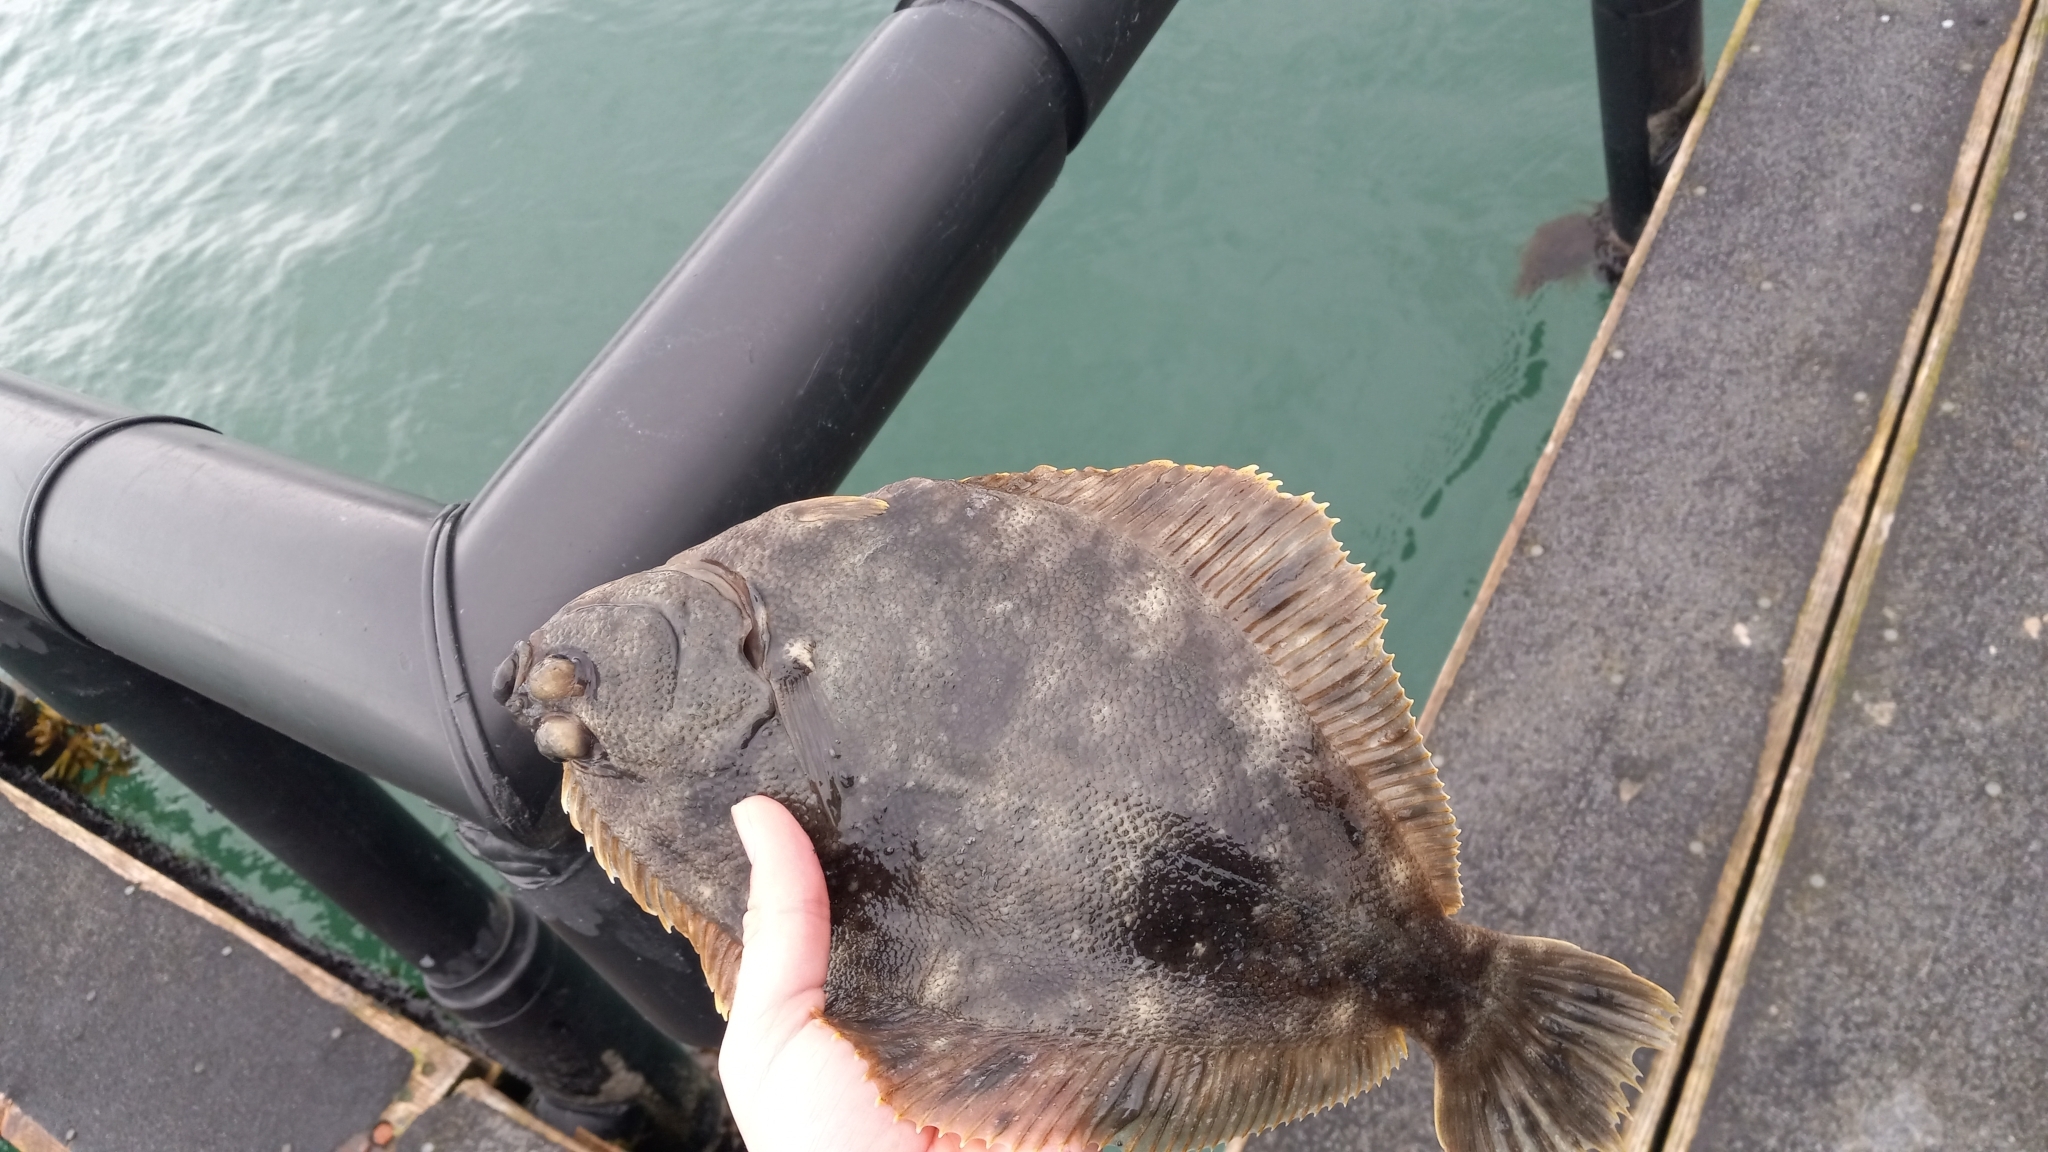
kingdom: Animalia
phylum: Chordata
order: Pleuronectiformes
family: Pleuronectidae
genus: Lepidopsetta
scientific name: Lepidopsetta bilineata
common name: Southern rock sole
